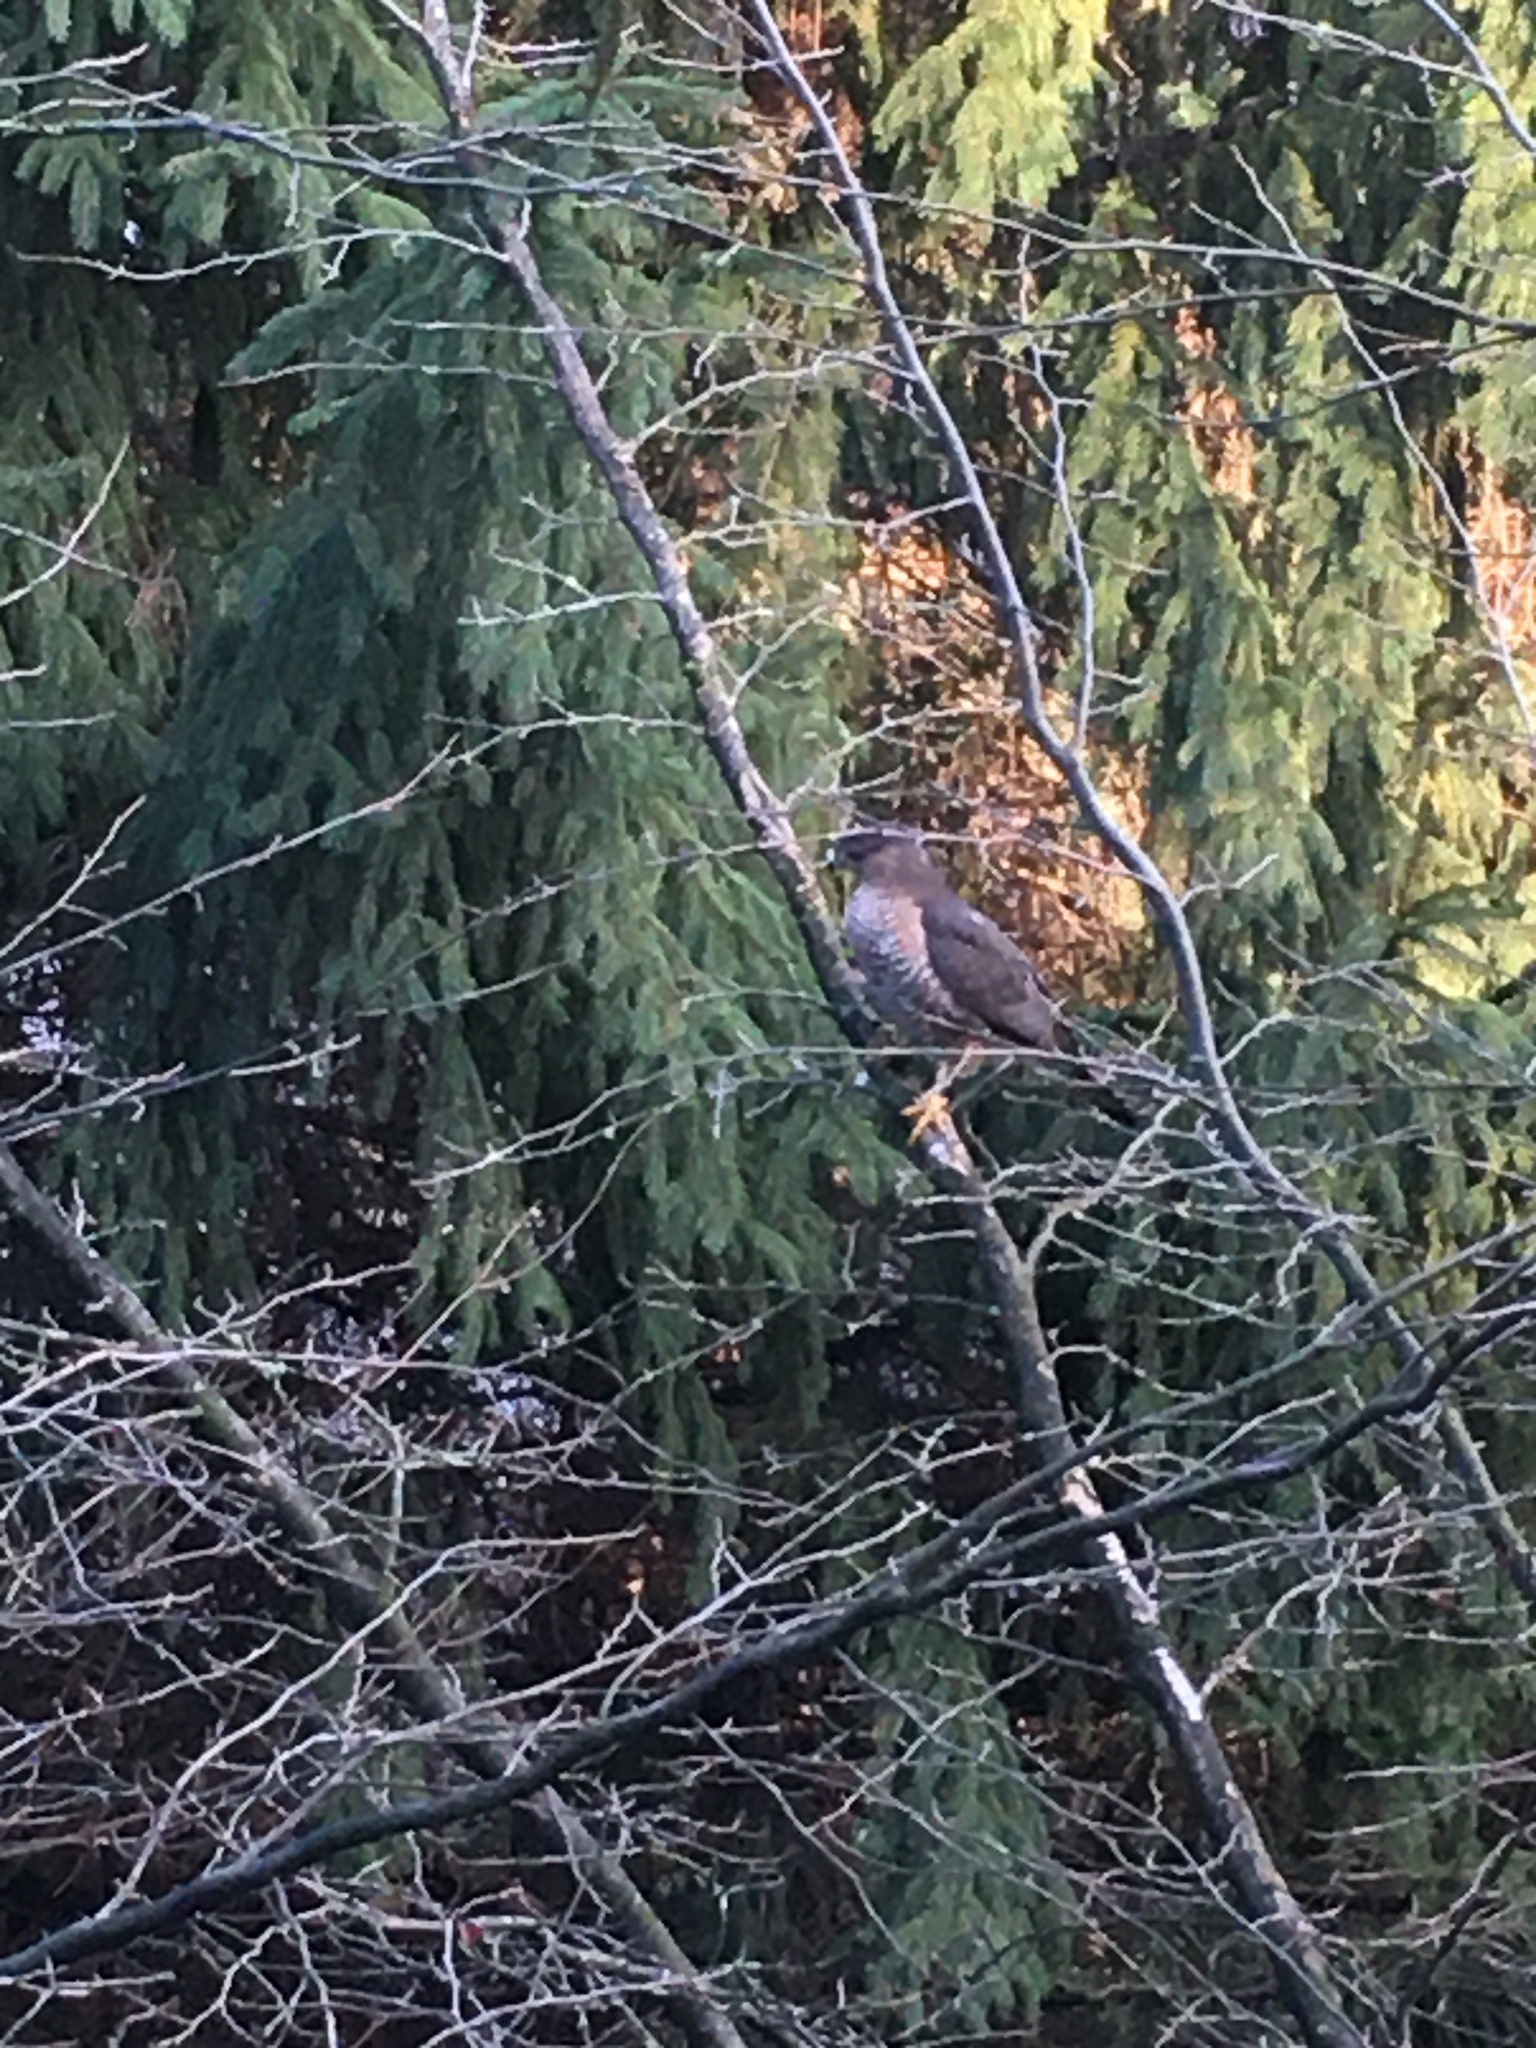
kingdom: Animalia
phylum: Chordata
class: Aves
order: Accipitriformes
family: Accipitridae
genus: Accipiter
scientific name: Accipiter cooperii
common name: Cooper's hawk
